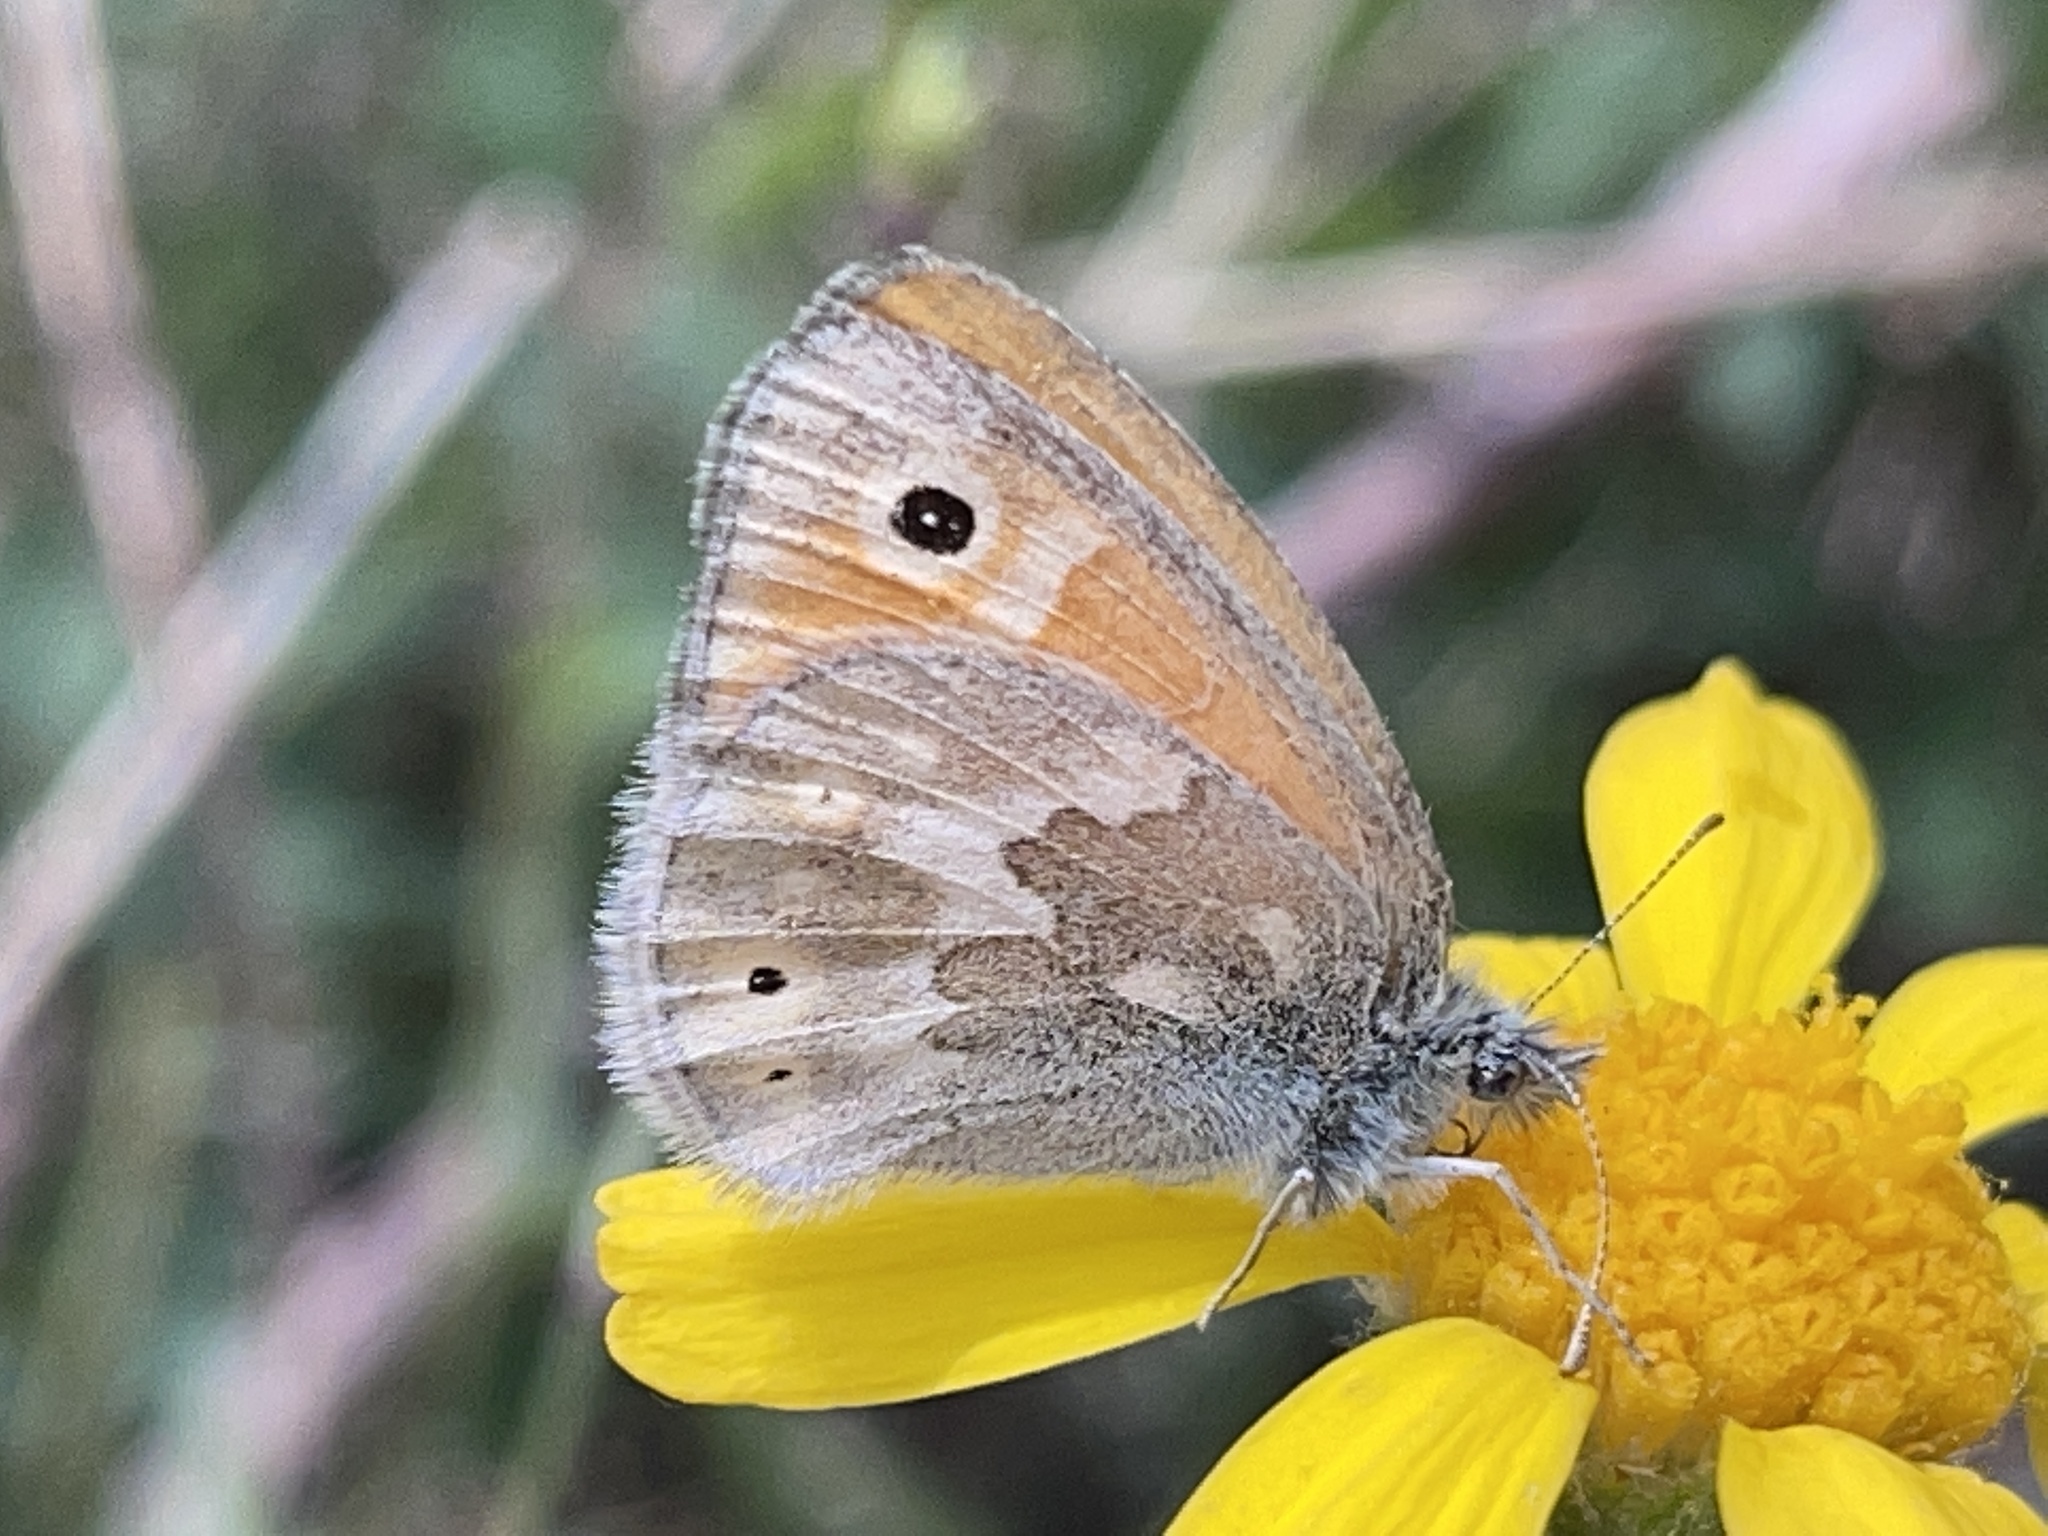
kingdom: Animalia
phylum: Arthropoda
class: Insecta
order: Lepidoptera
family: Nymphalidae
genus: Coenonympha
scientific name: Coenonympha california
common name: Common ringlet
